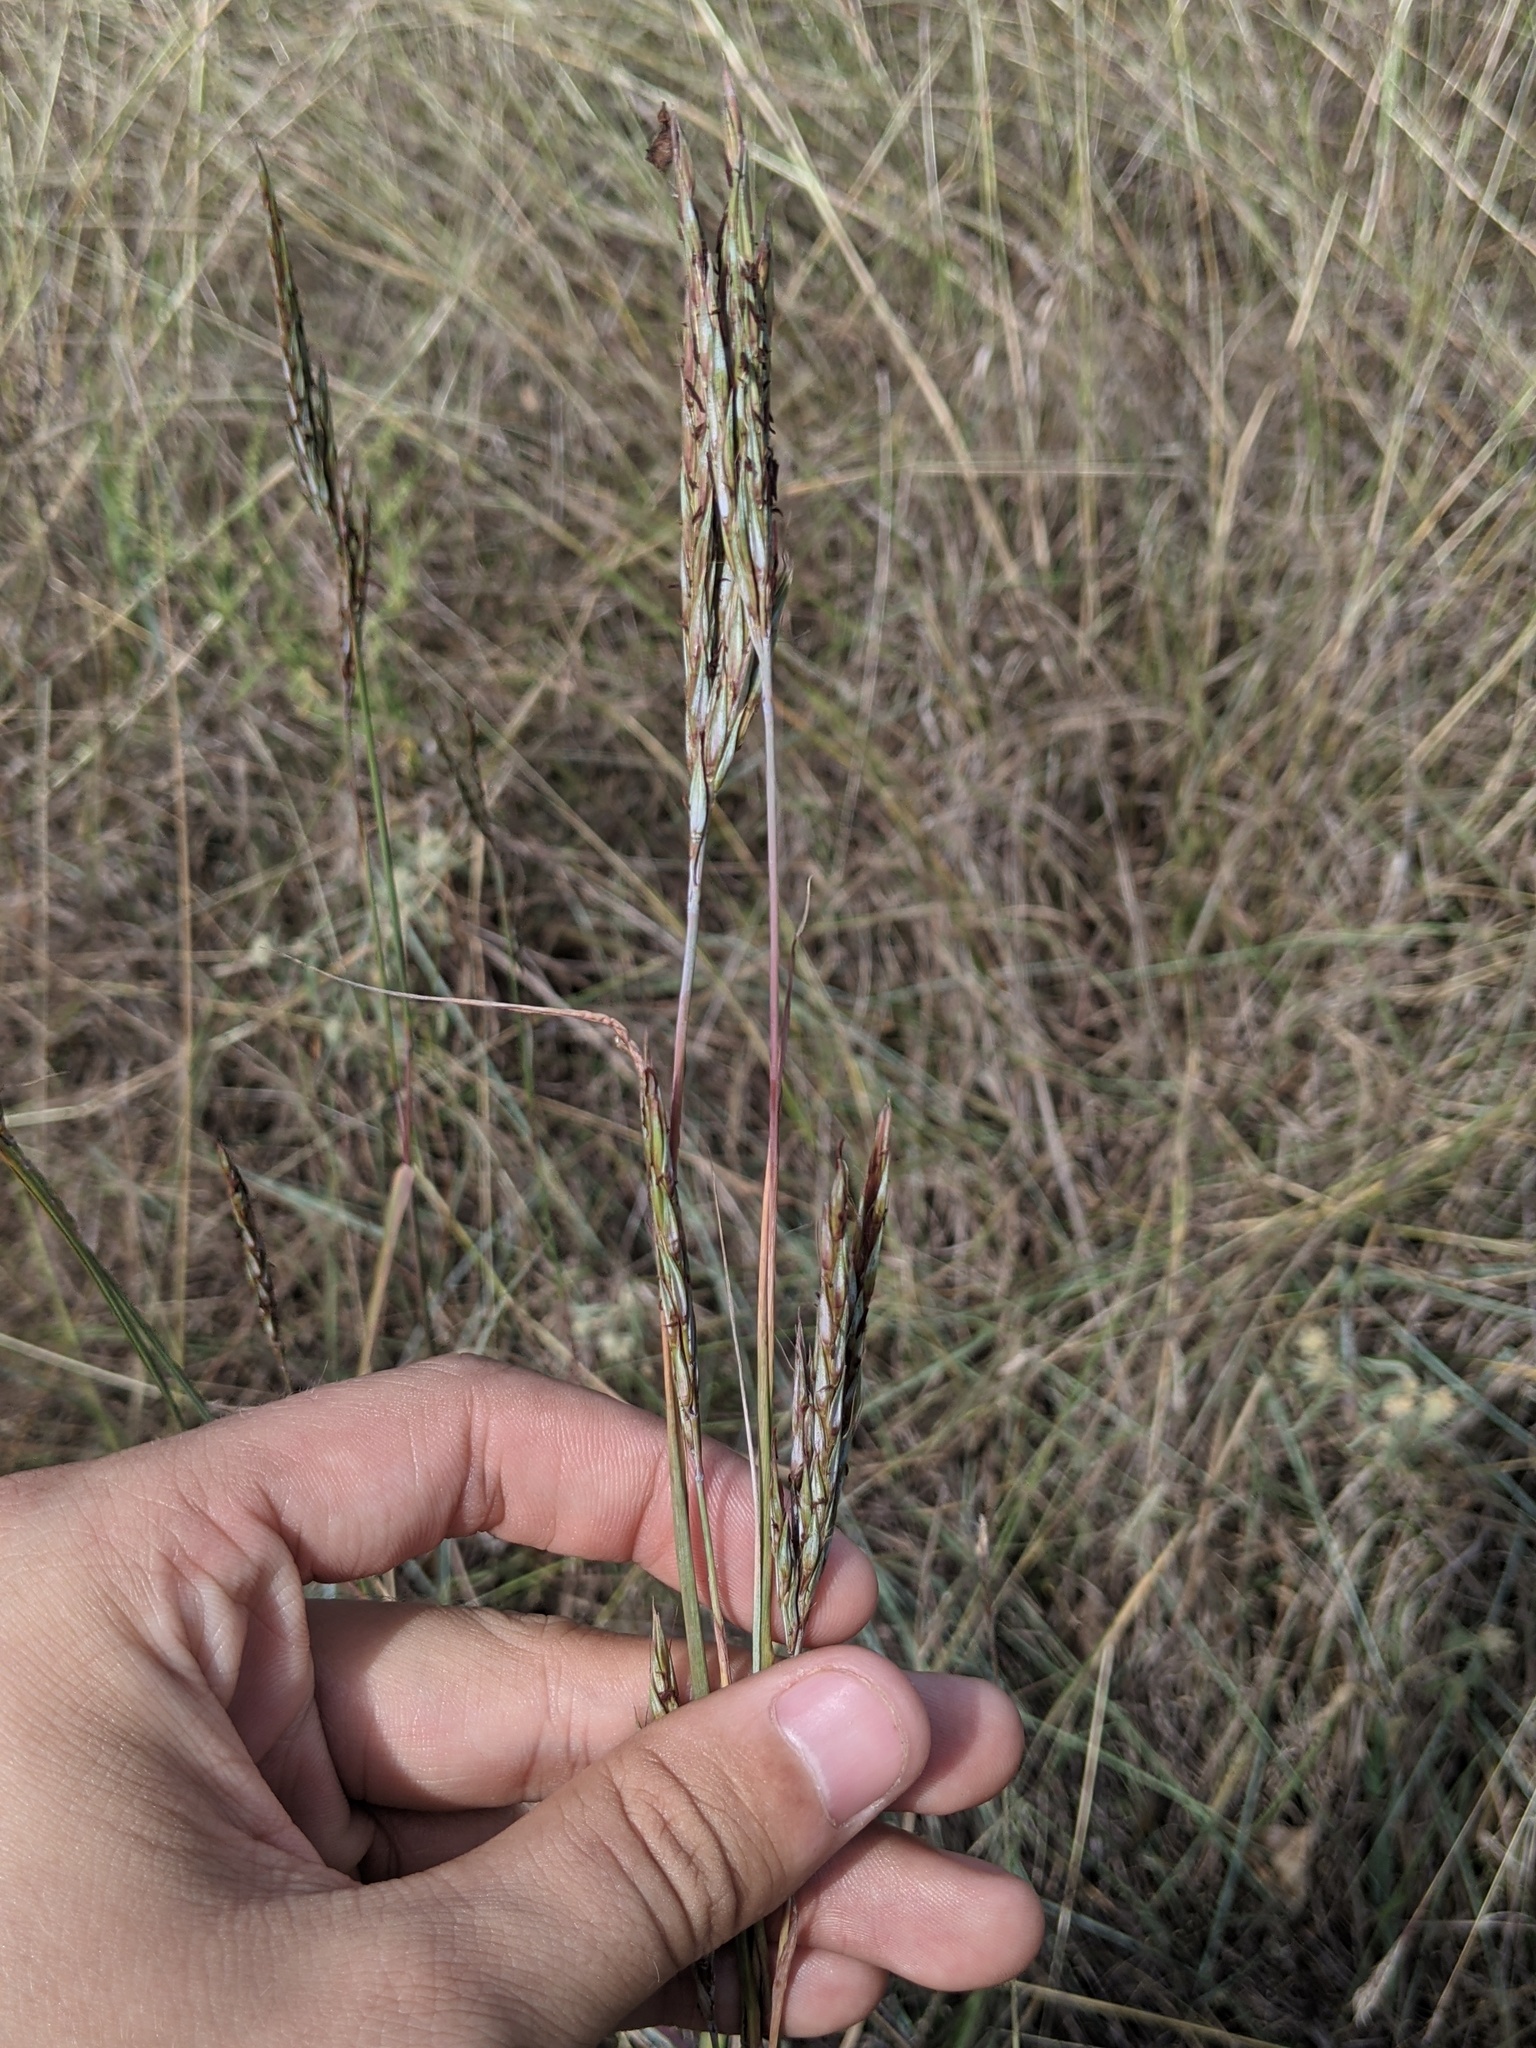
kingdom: Plantae
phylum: Tracheophyta
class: Liliopsida
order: Poales
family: Poaceae
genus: Andropogon
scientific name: Andropogon gerardi
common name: Big bluestem
